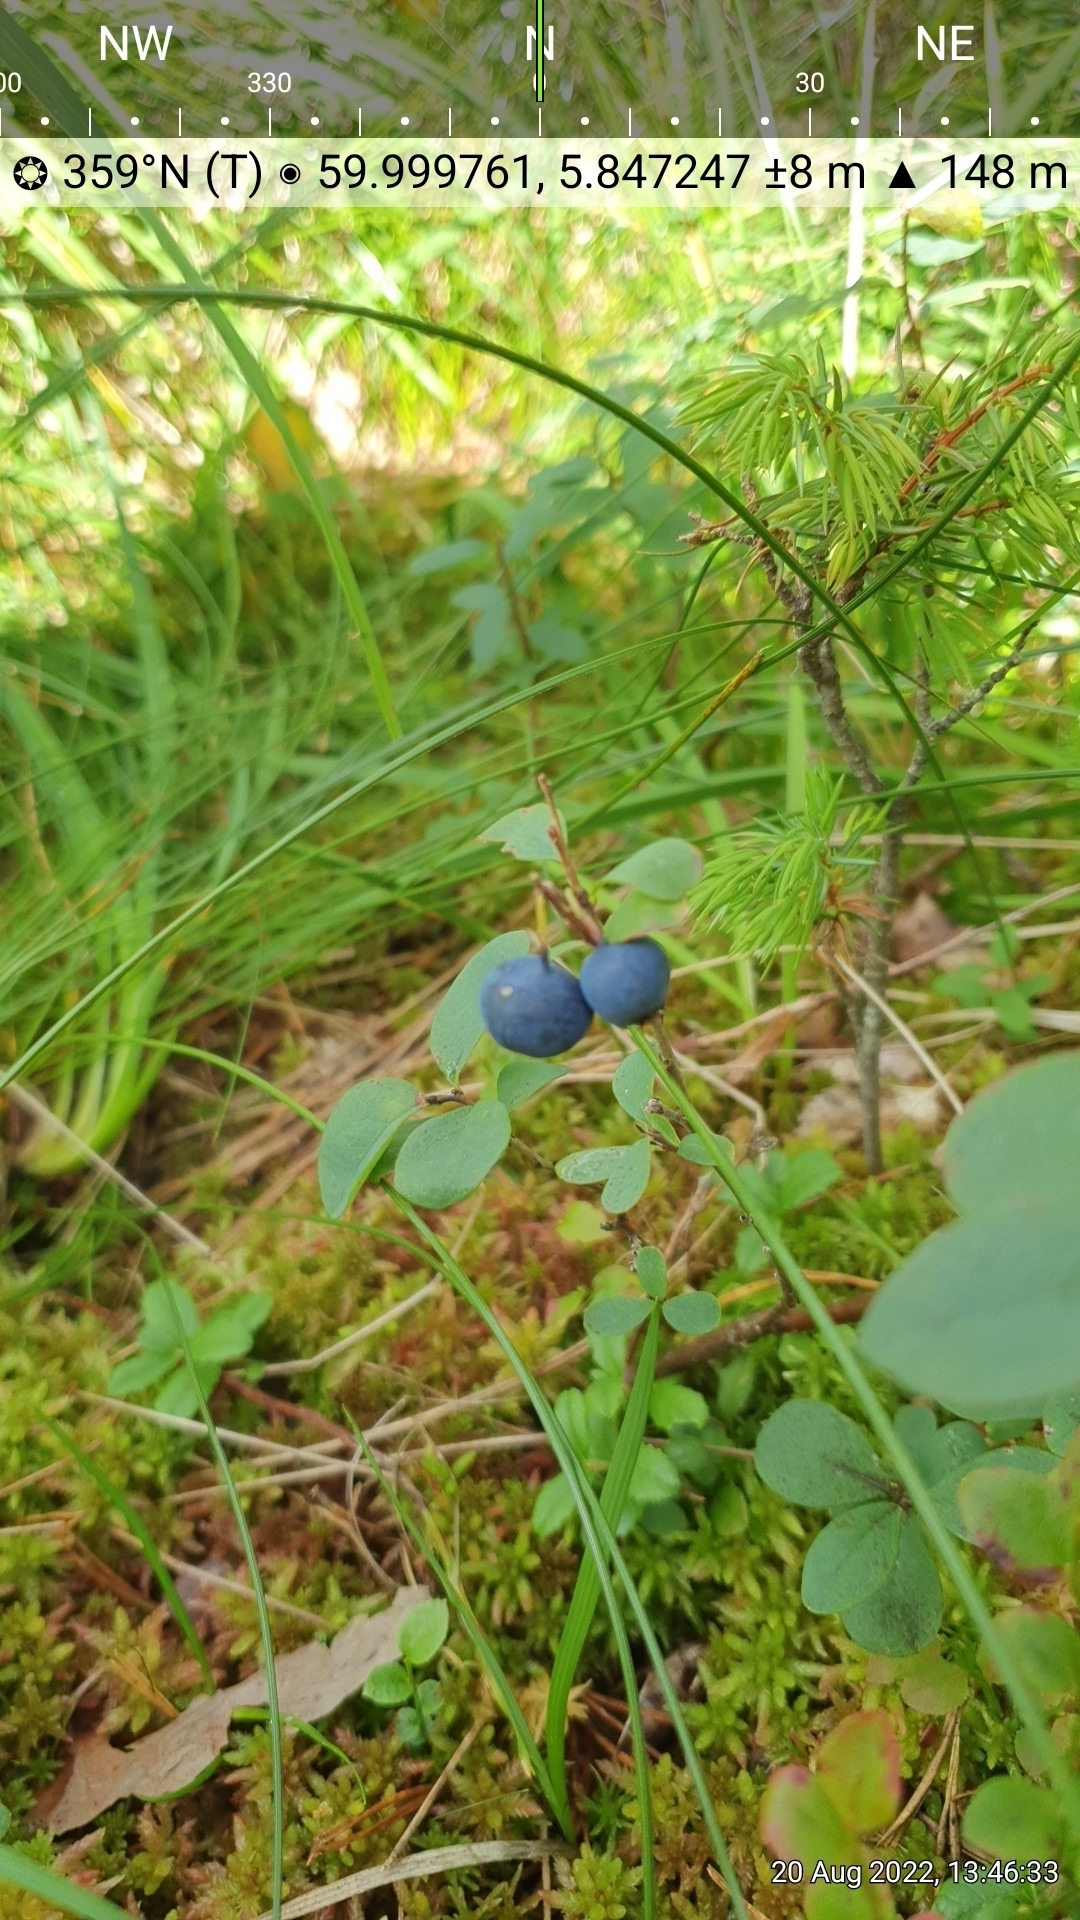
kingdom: Plantae
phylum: Tracheophyta
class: Magnoliopsida
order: Ericales
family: Ericaceae
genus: Vaccinium
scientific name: Vaccinium uliginosum
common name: Bog bilberry
